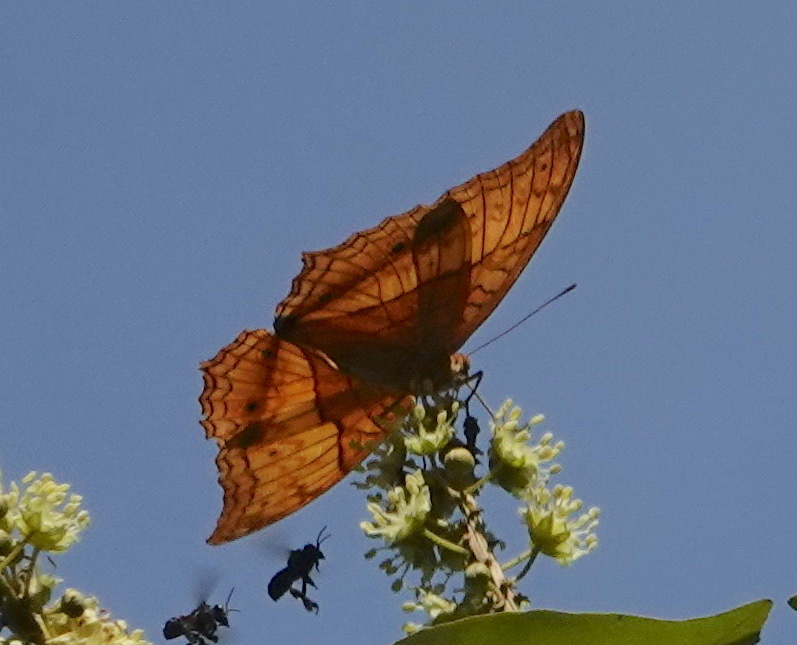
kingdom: Animalia
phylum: Arthropoda
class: Insecta
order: Lepidoptera
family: Nymphalidae
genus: Vindula
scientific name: Vindula deione
